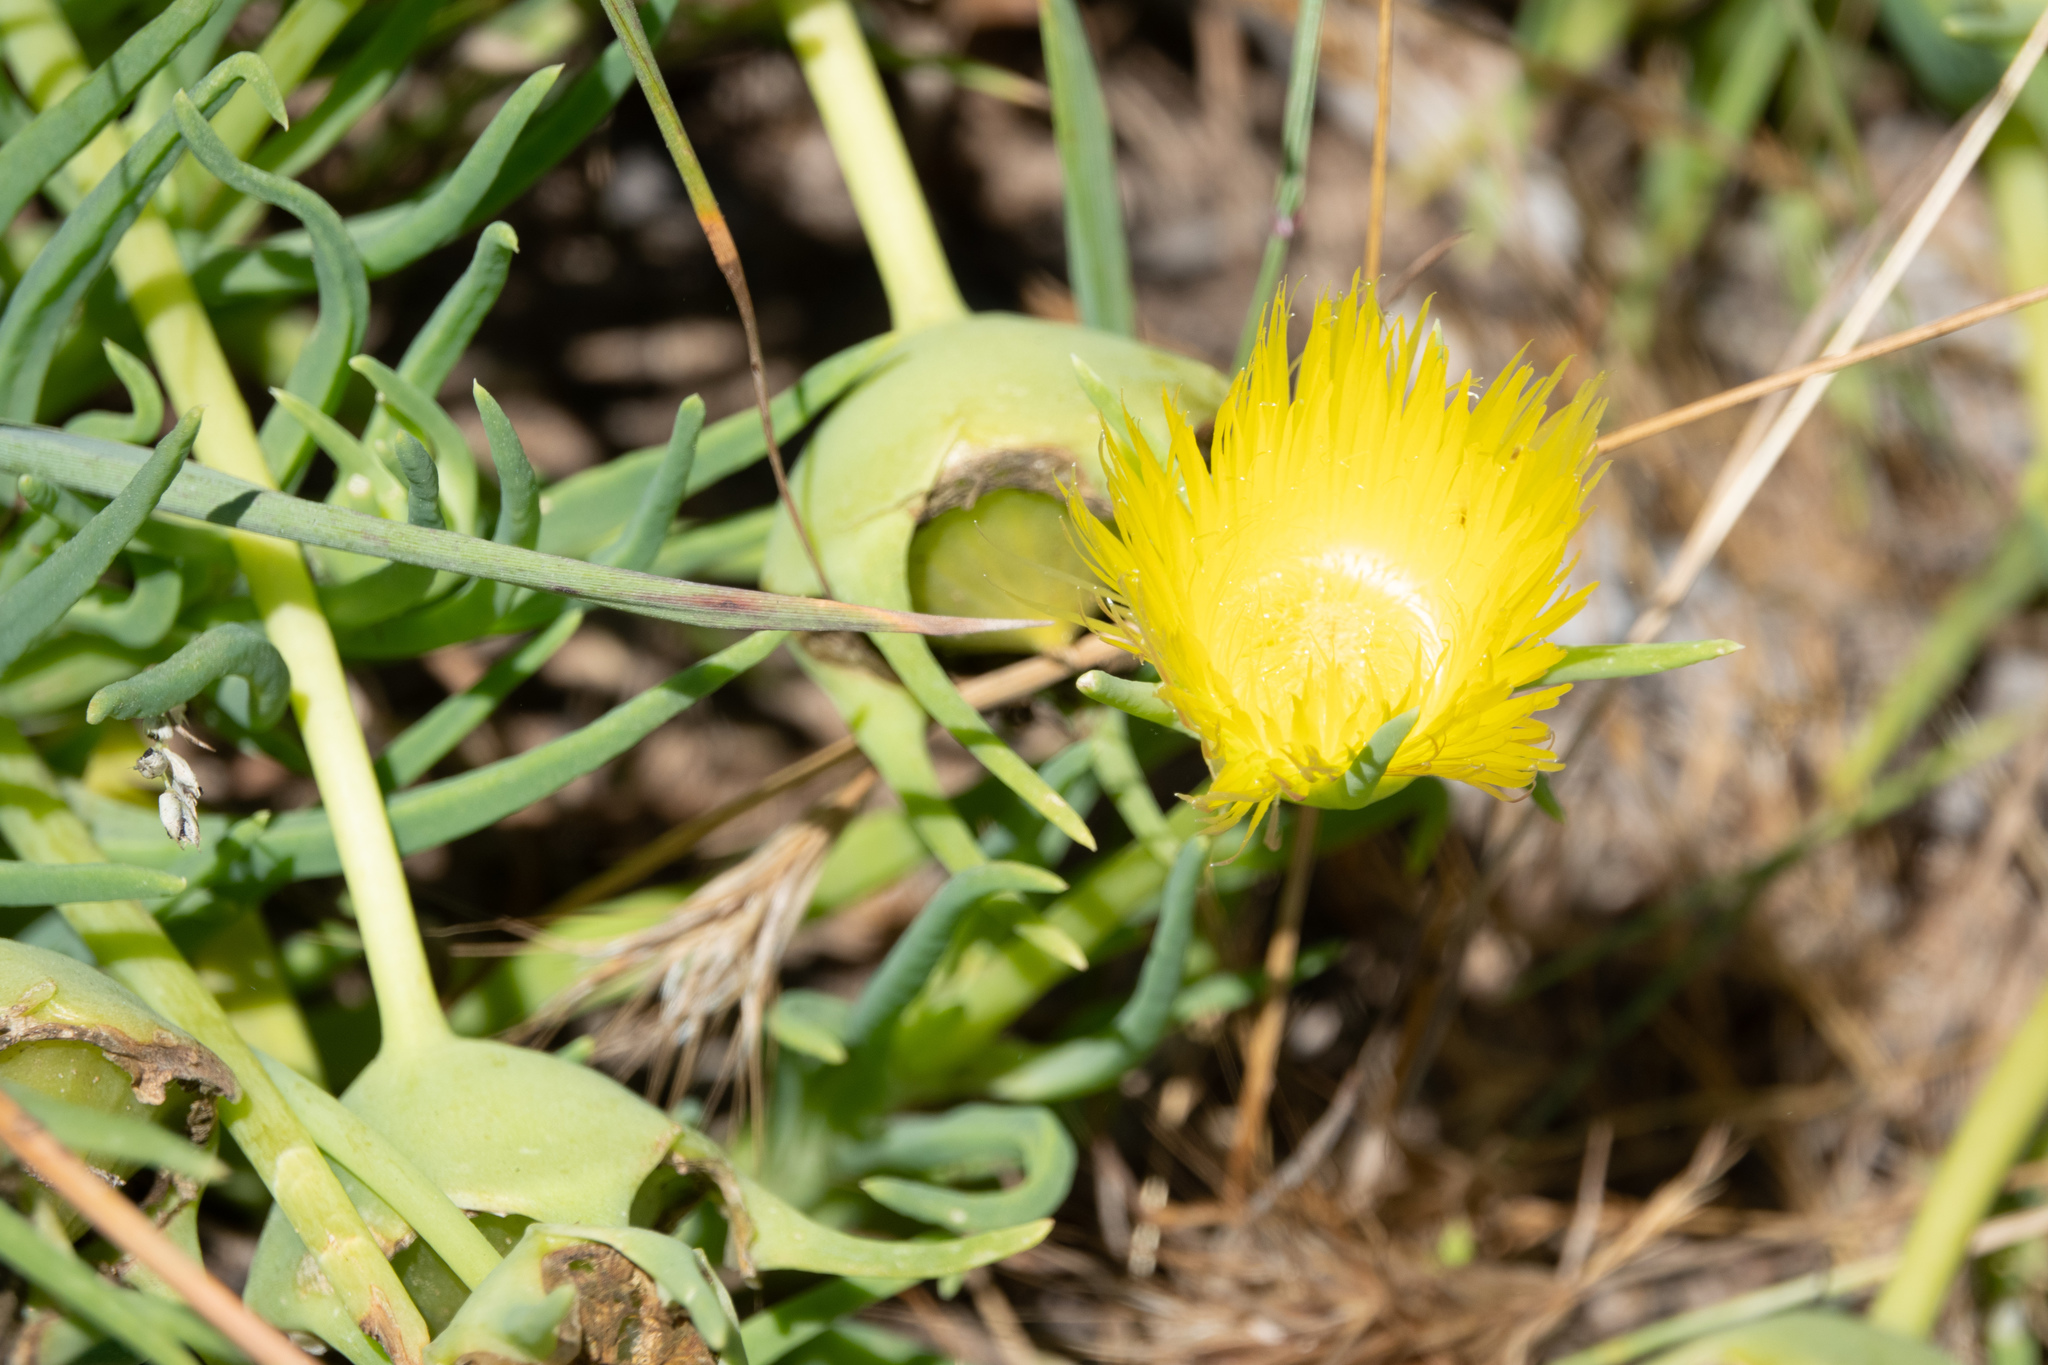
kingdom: Plantae
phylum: Tracheophyta
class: Magnoliopsida
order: Caryophyllales
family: Aizoaceae
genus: Conicosia
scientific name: Conicosia pugioniformis
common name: Narrow-leaved iceplant
